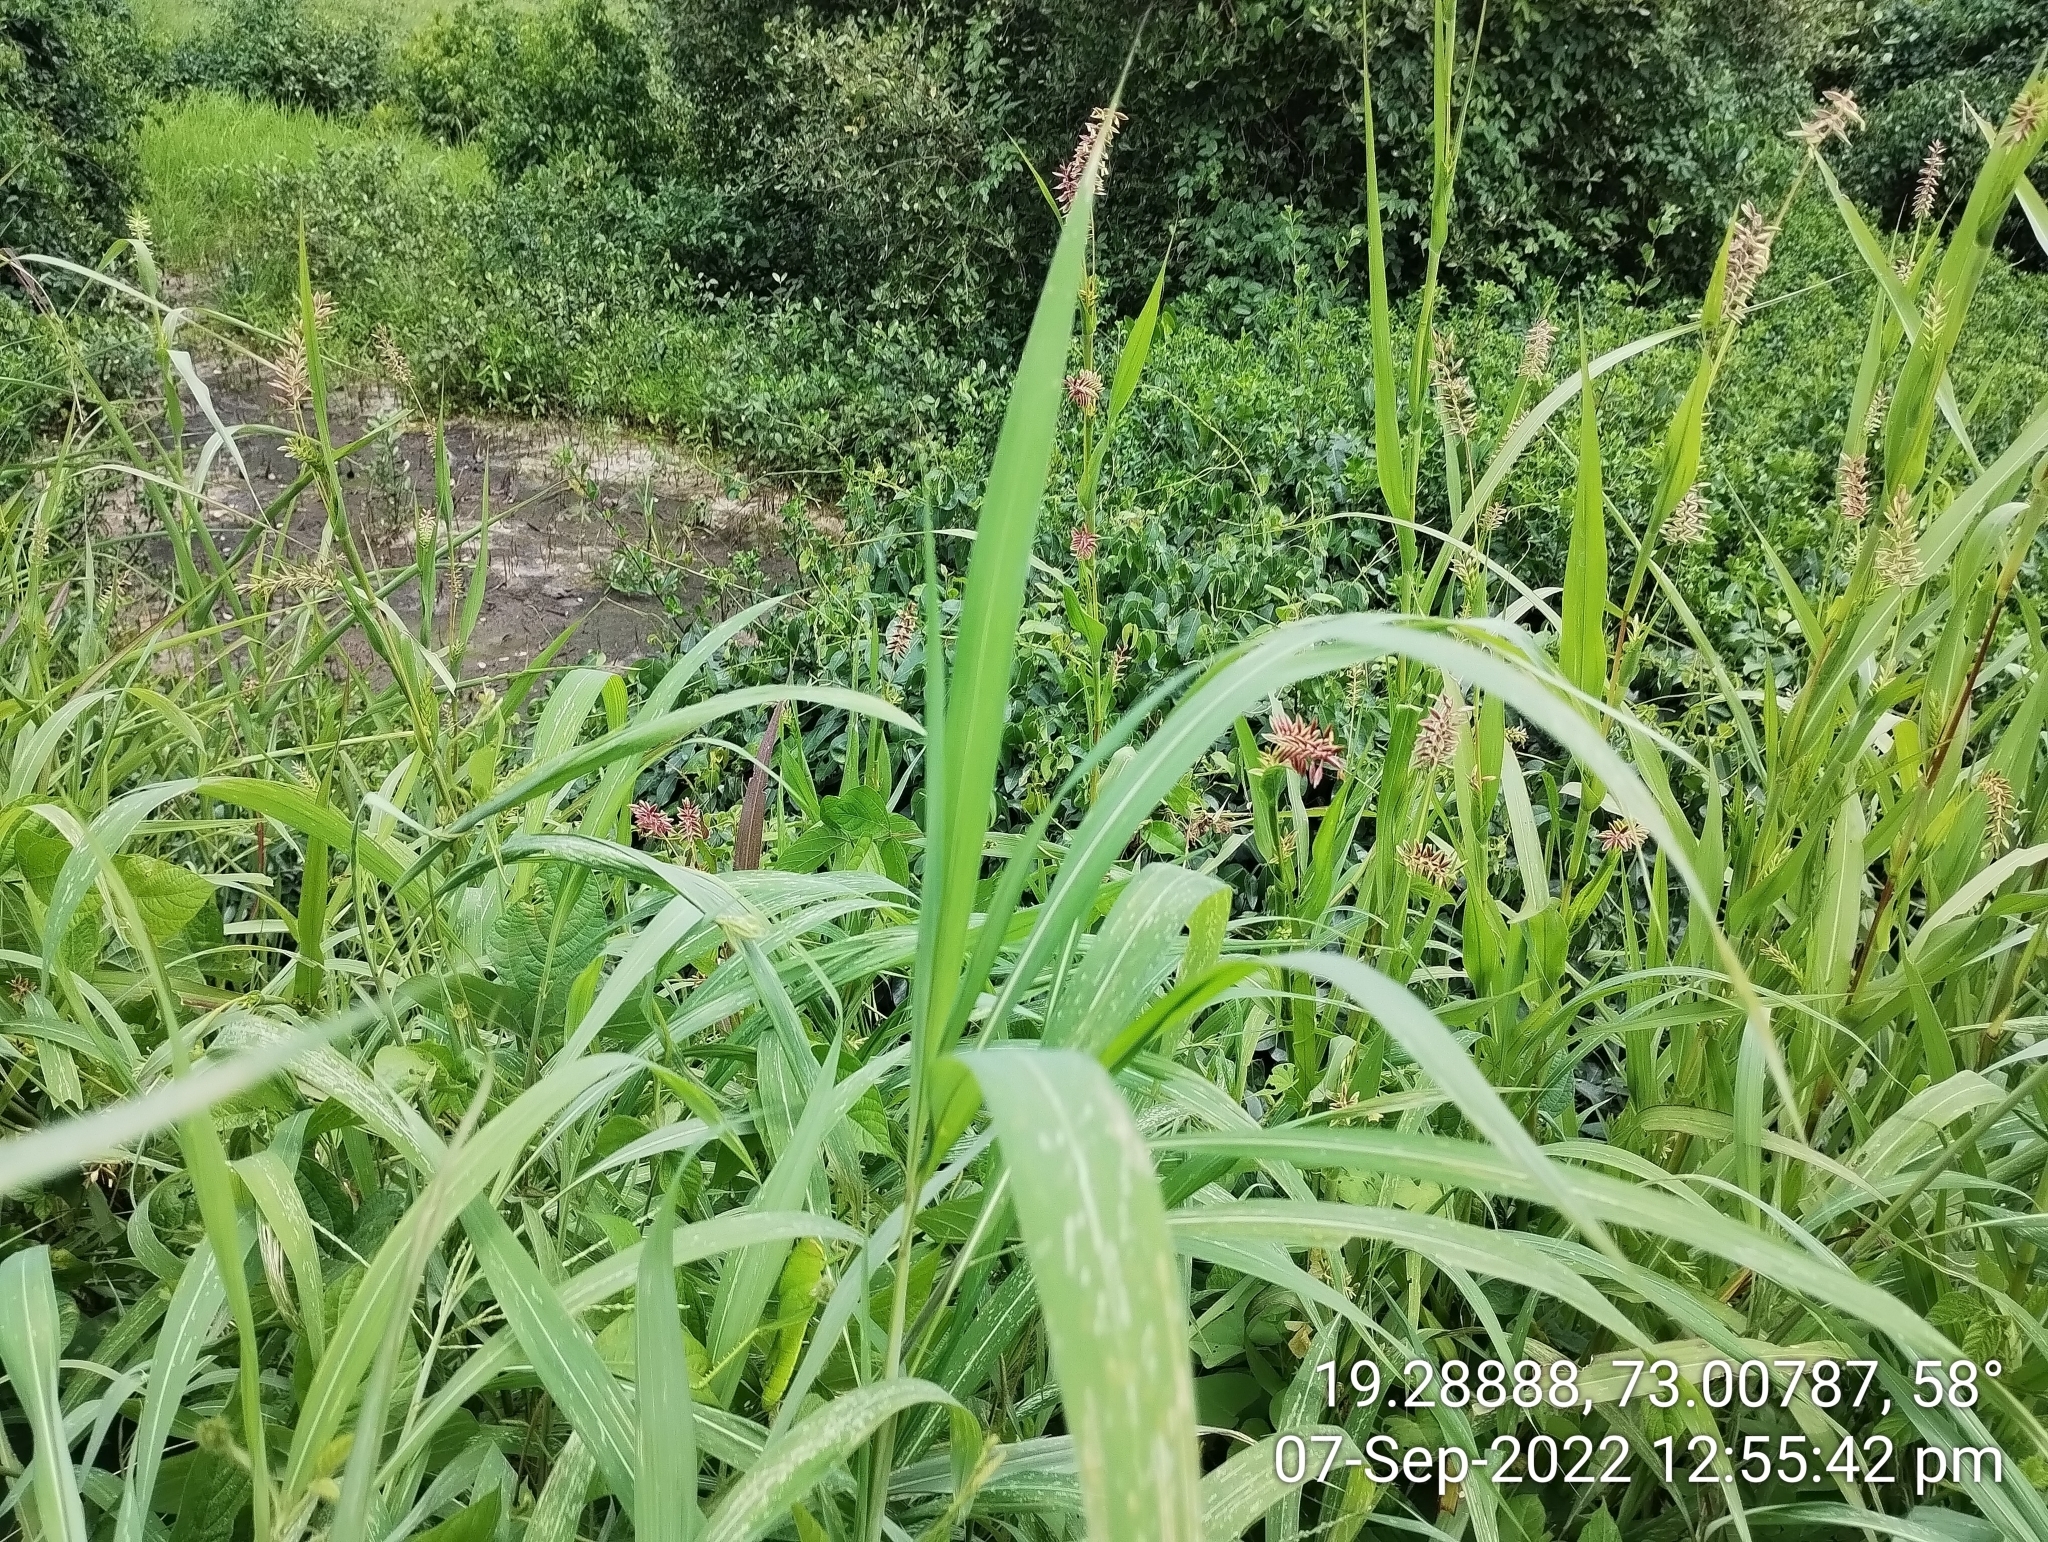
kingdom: Plantae
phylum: Tracheophyta
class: Liliopsida
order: Poales
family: Poaceae
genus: Coix
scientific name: Coix lacryma-jobi
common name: Job's tears
